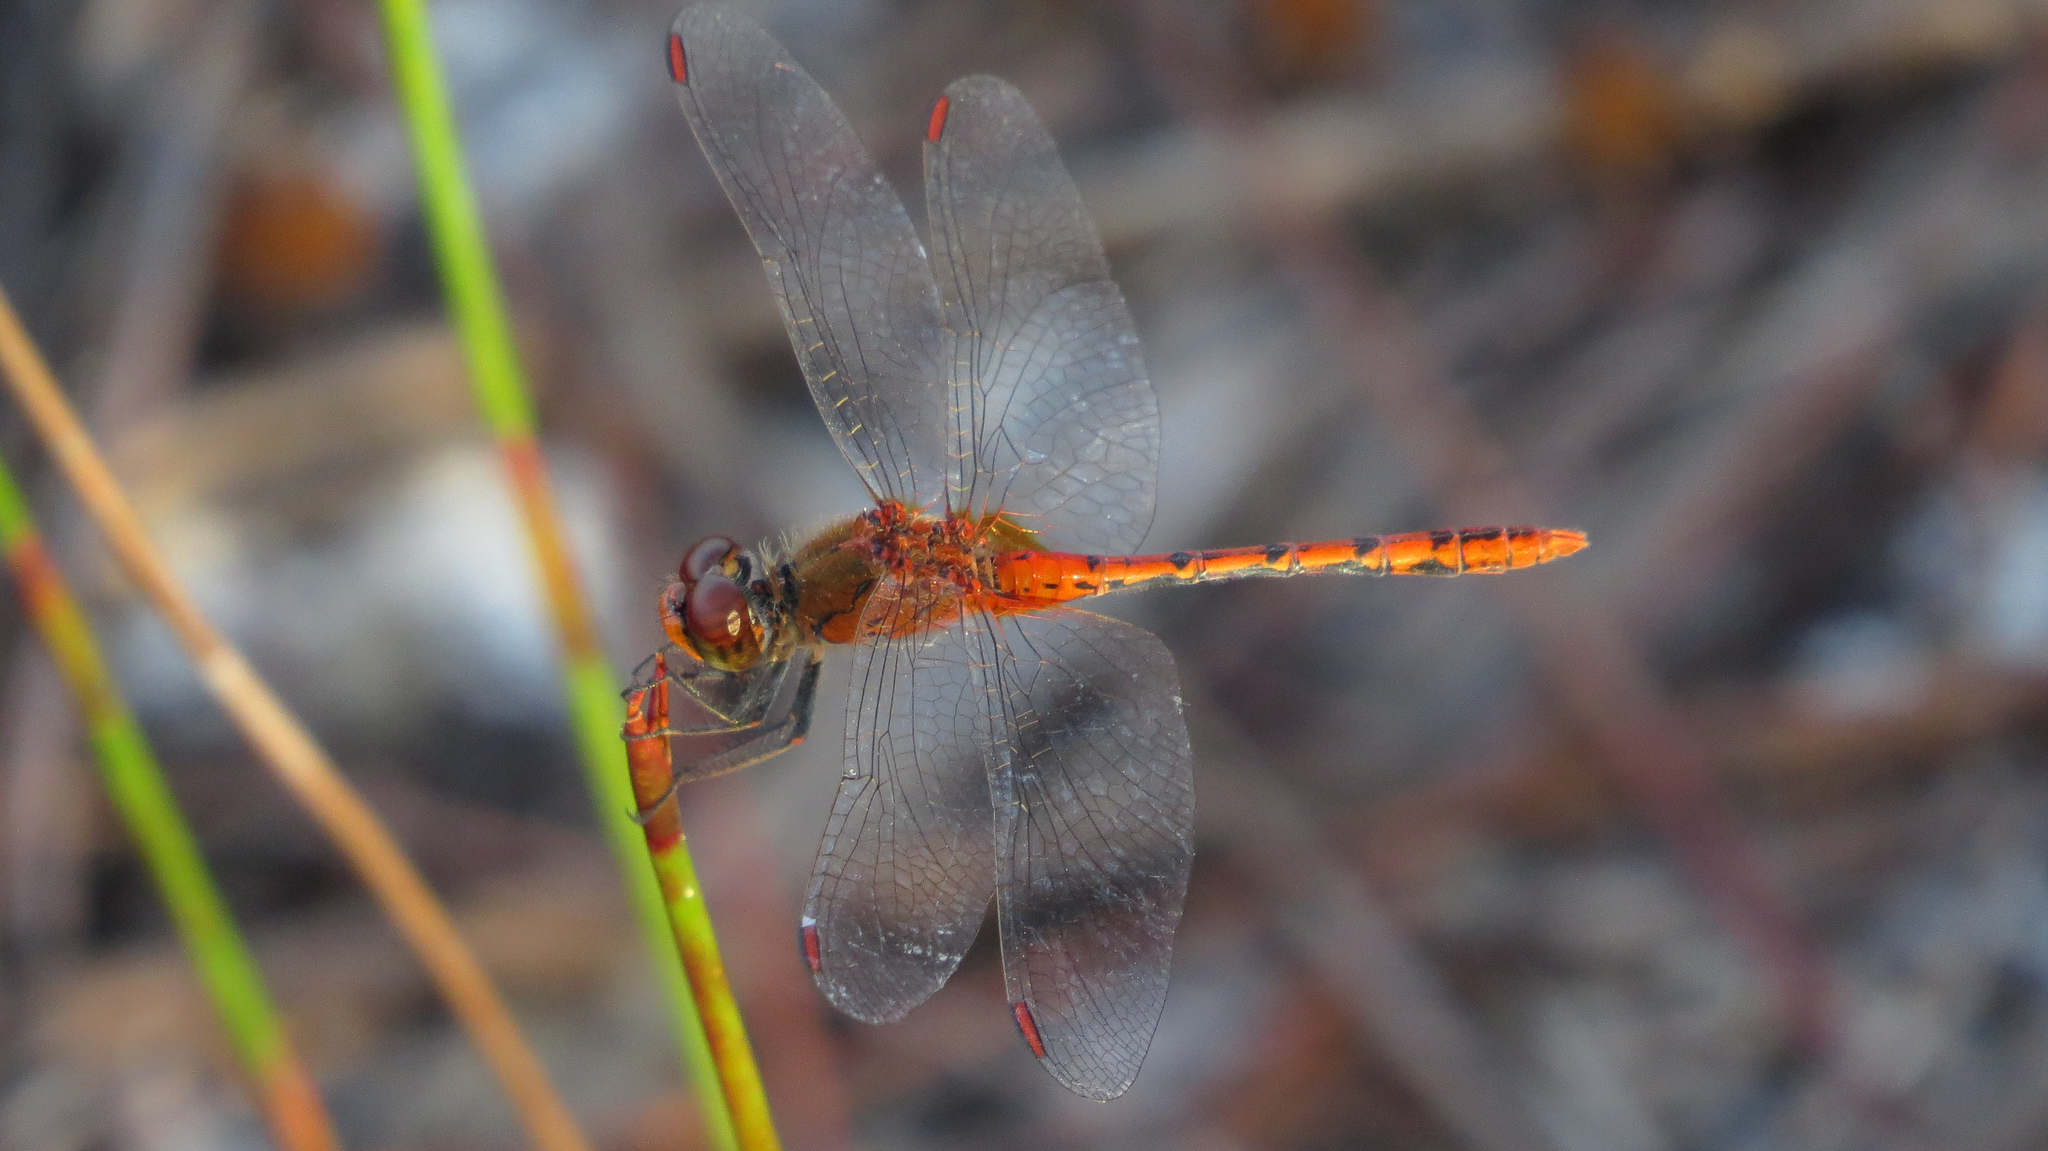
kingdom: Animalia
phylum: Arthropoda
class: Insecta
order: Odonata
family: Libellulidae
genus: Diplacodes
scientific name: Diplacodes bipunctata
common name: Red percher dragonfly
